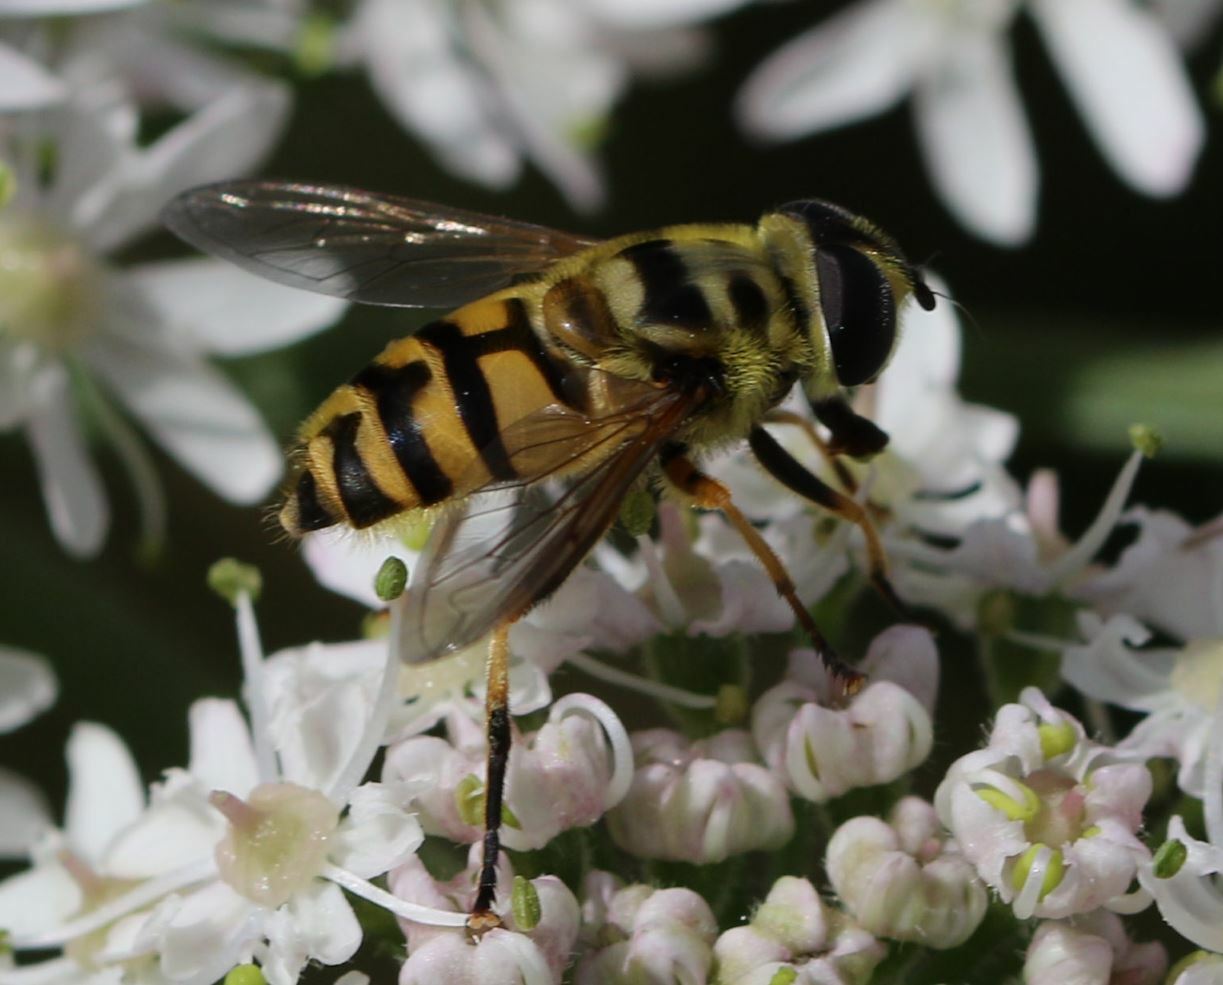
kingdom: Animalia
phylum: Arthropoda
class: Insecta
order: Diptera
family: Syrphidae
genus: Myathropa
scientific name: Myathropa florea
